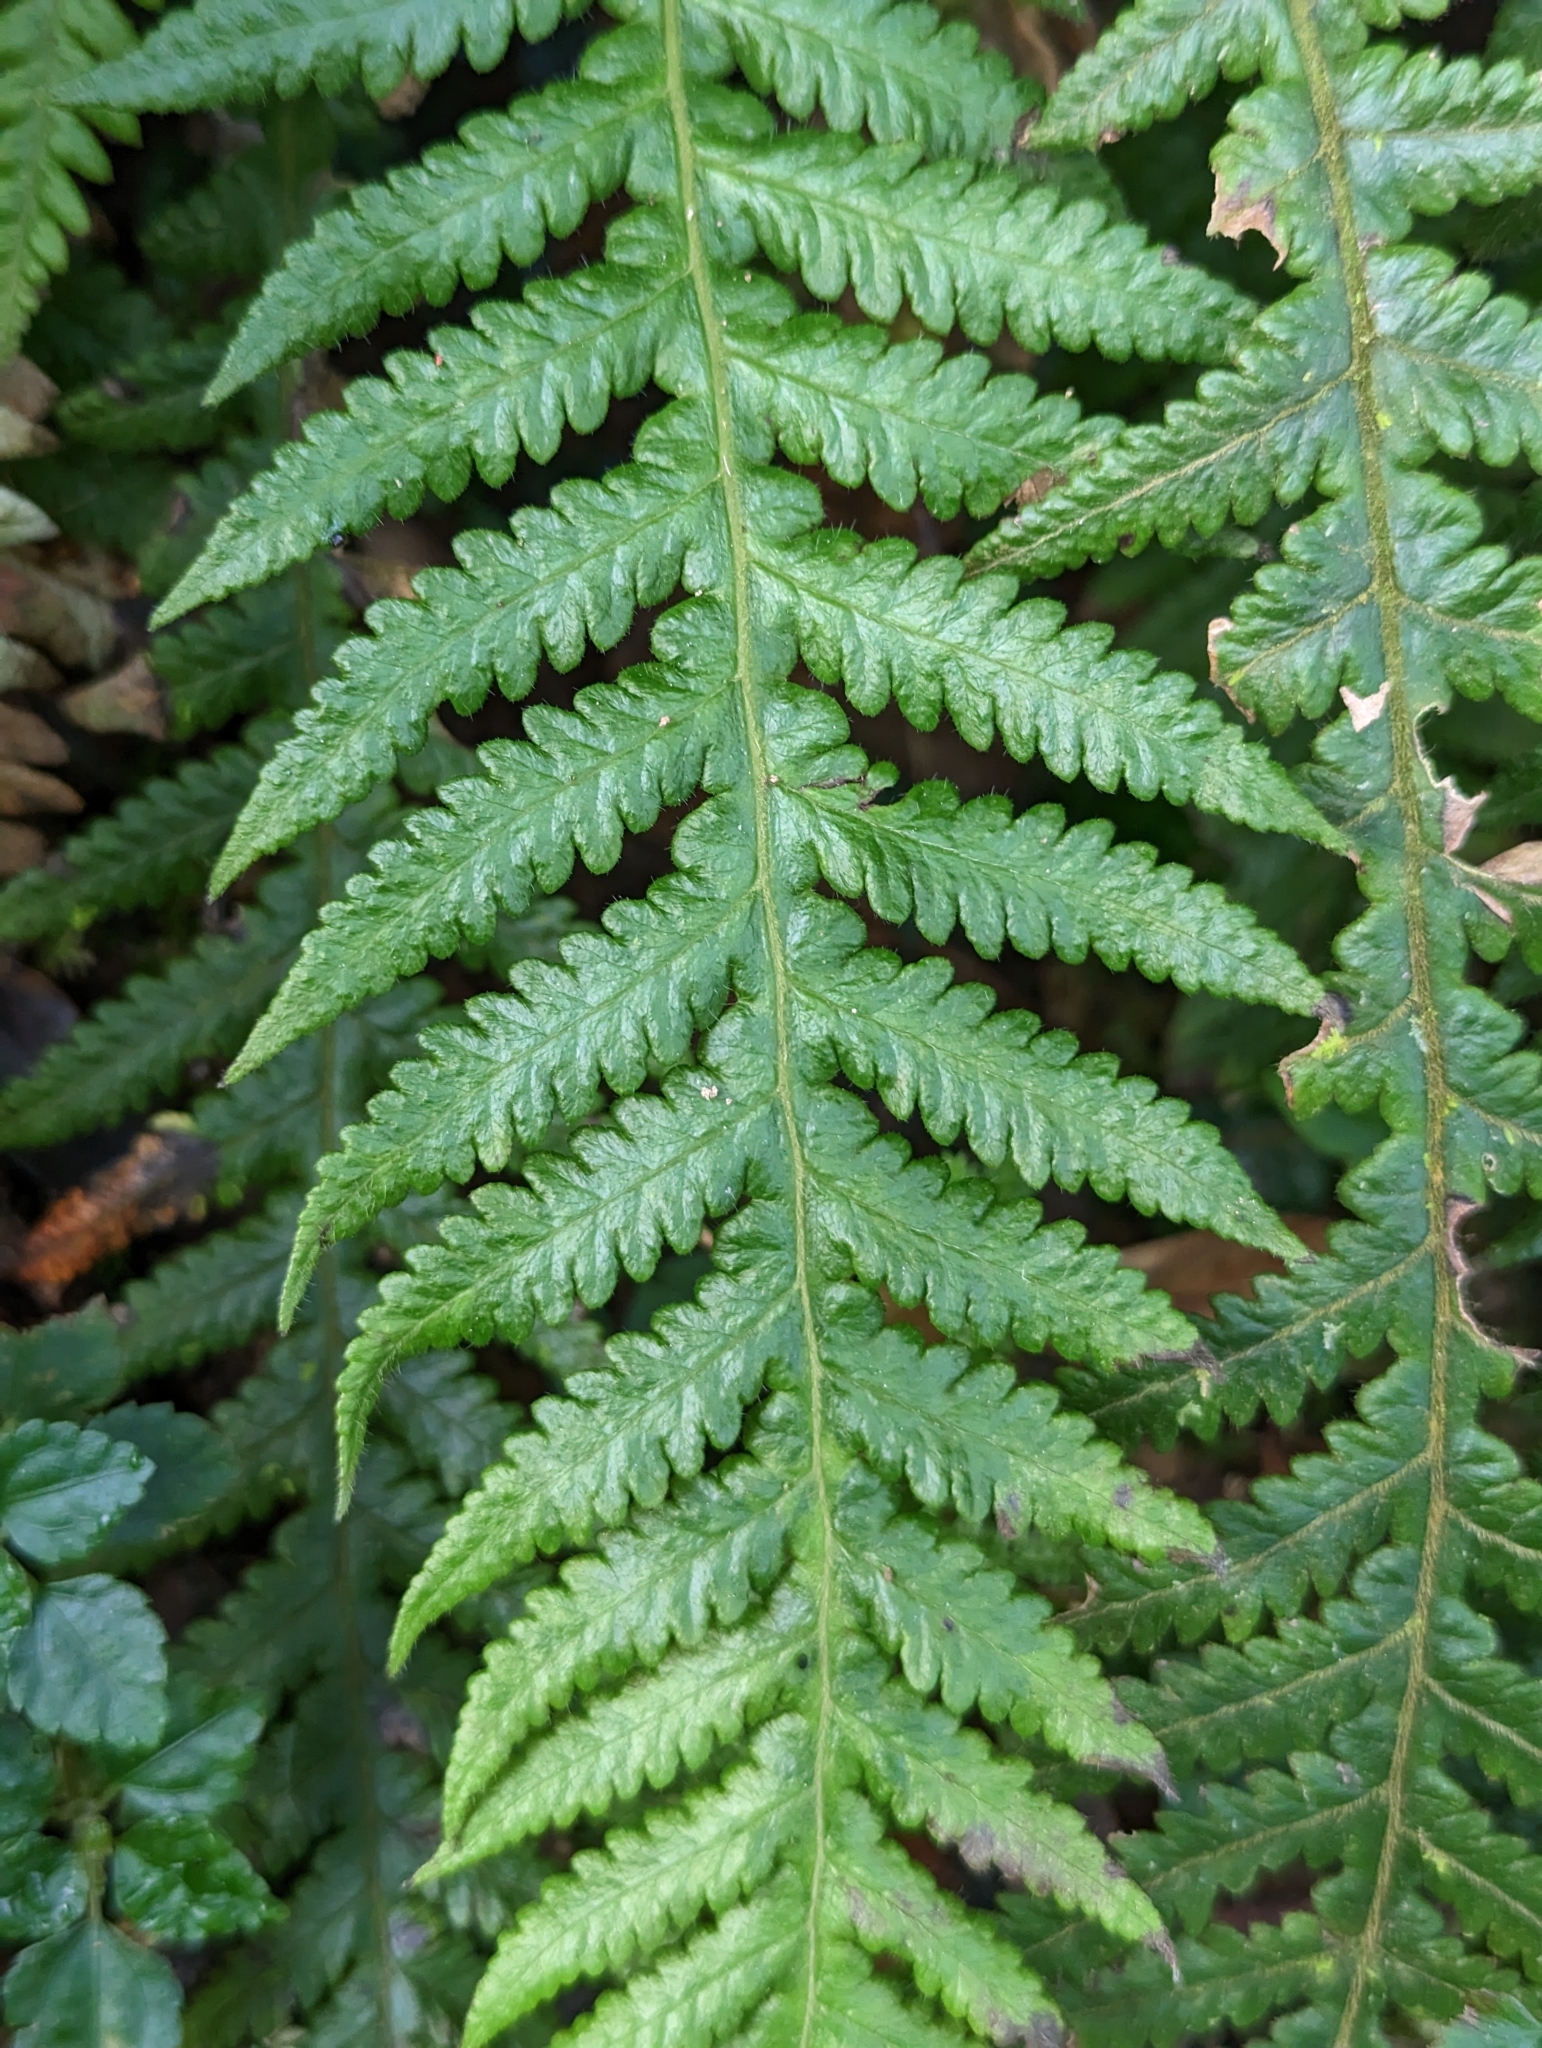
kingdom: Plantae
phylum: Tracheophyta
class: Polypodiopsida
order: Polypodiales
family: Thelypteridaceae
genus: Phegopteris
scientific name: Phegopteris decursive-pinnata
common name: Japanese beech fern
